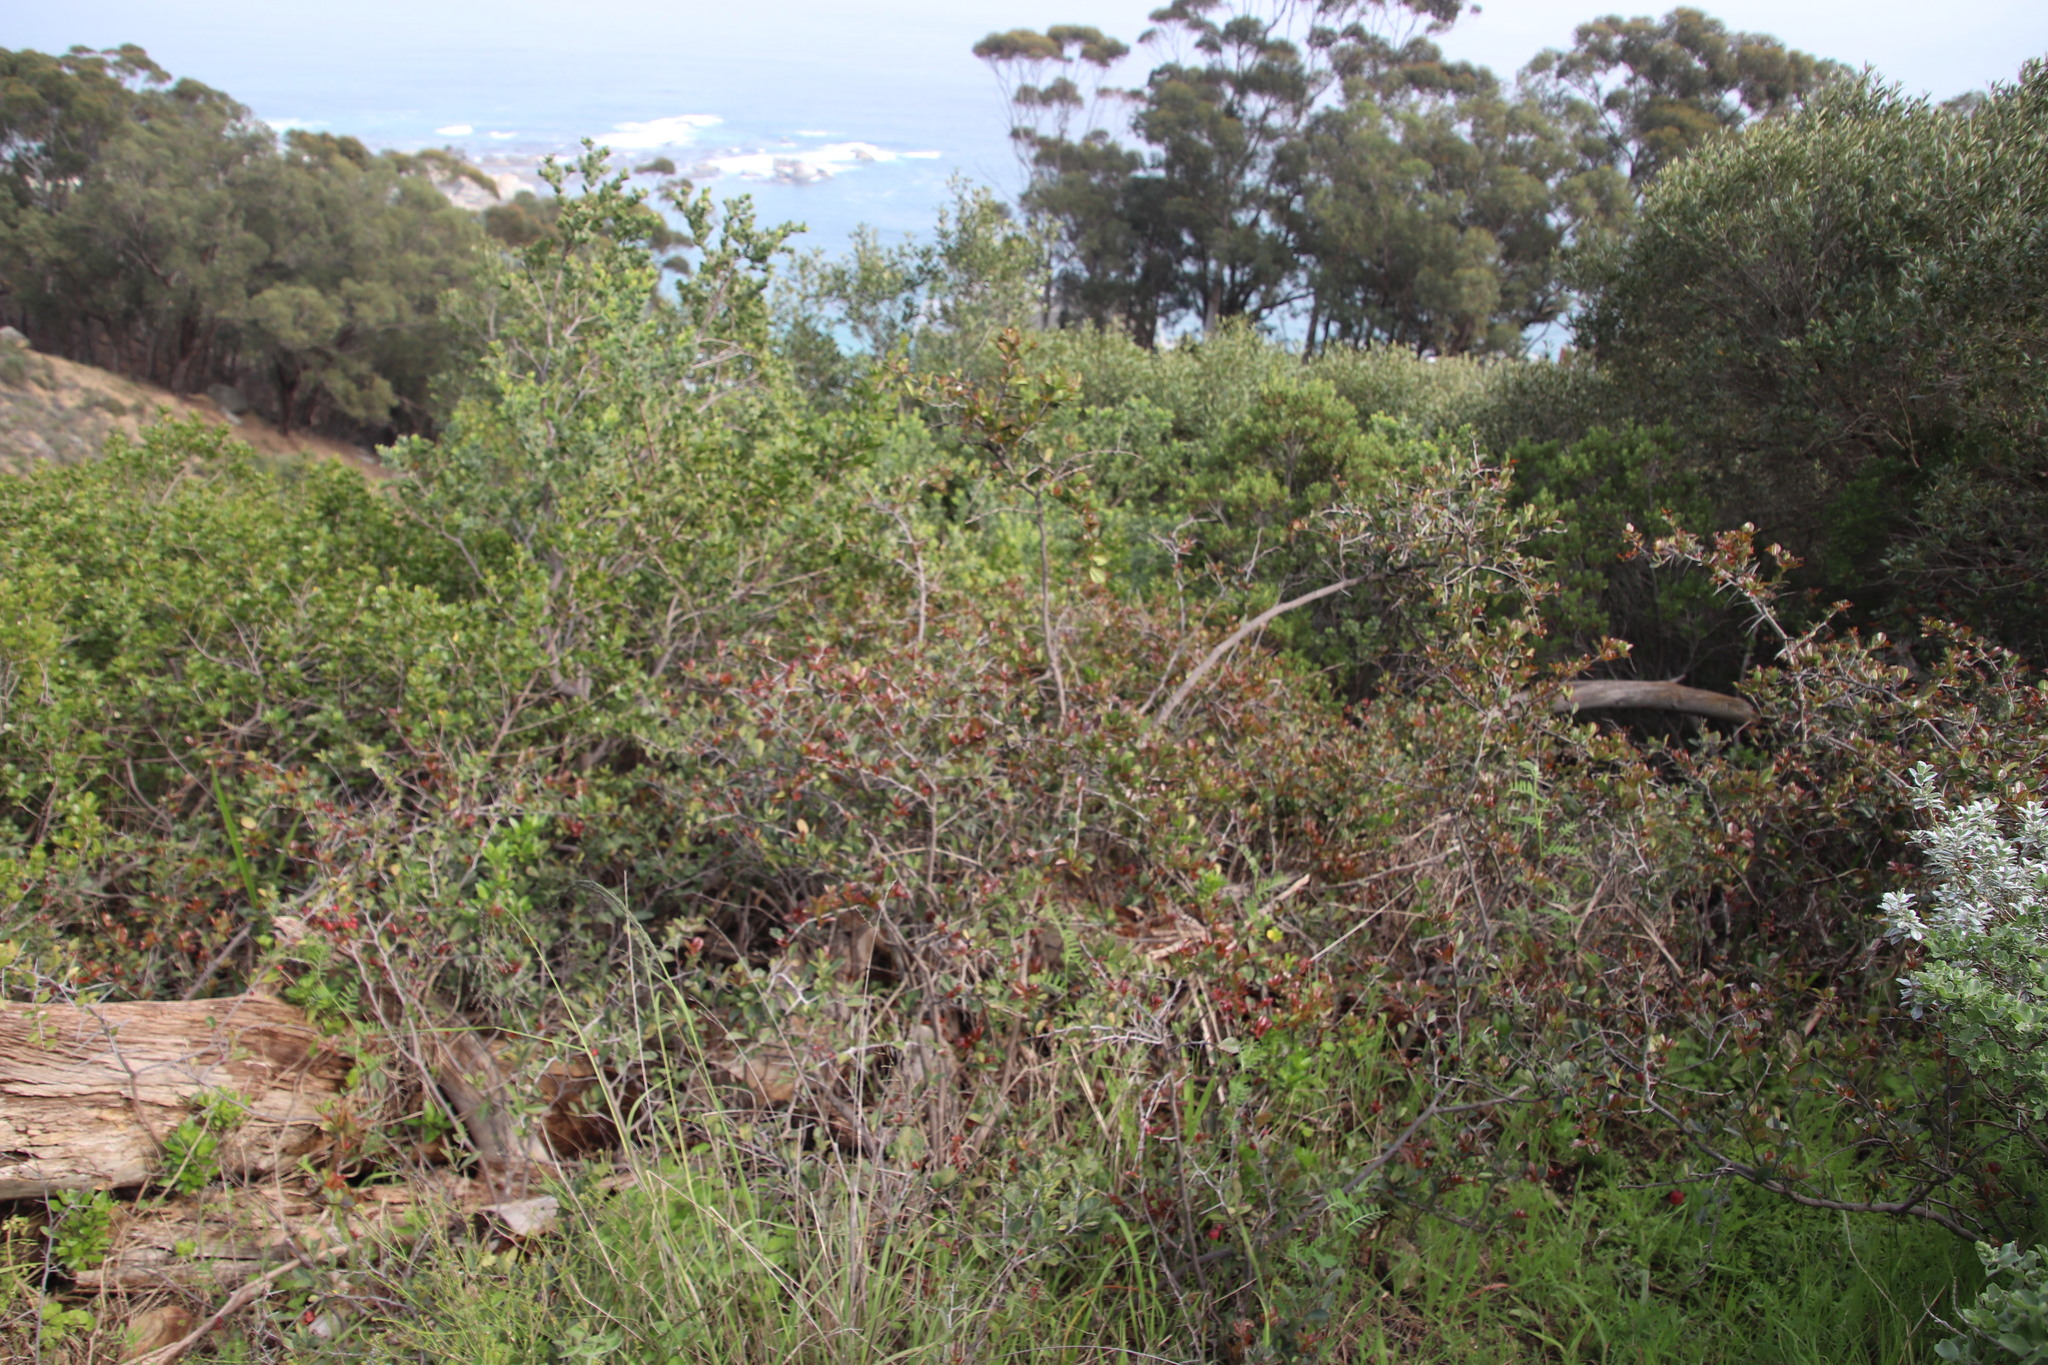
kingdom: Plantae
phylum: Tracheophyta
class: Magnoliopsida
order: Celastrales
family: Celastraceae
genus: Putterlickia
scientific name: Putterlickia pyracantha
